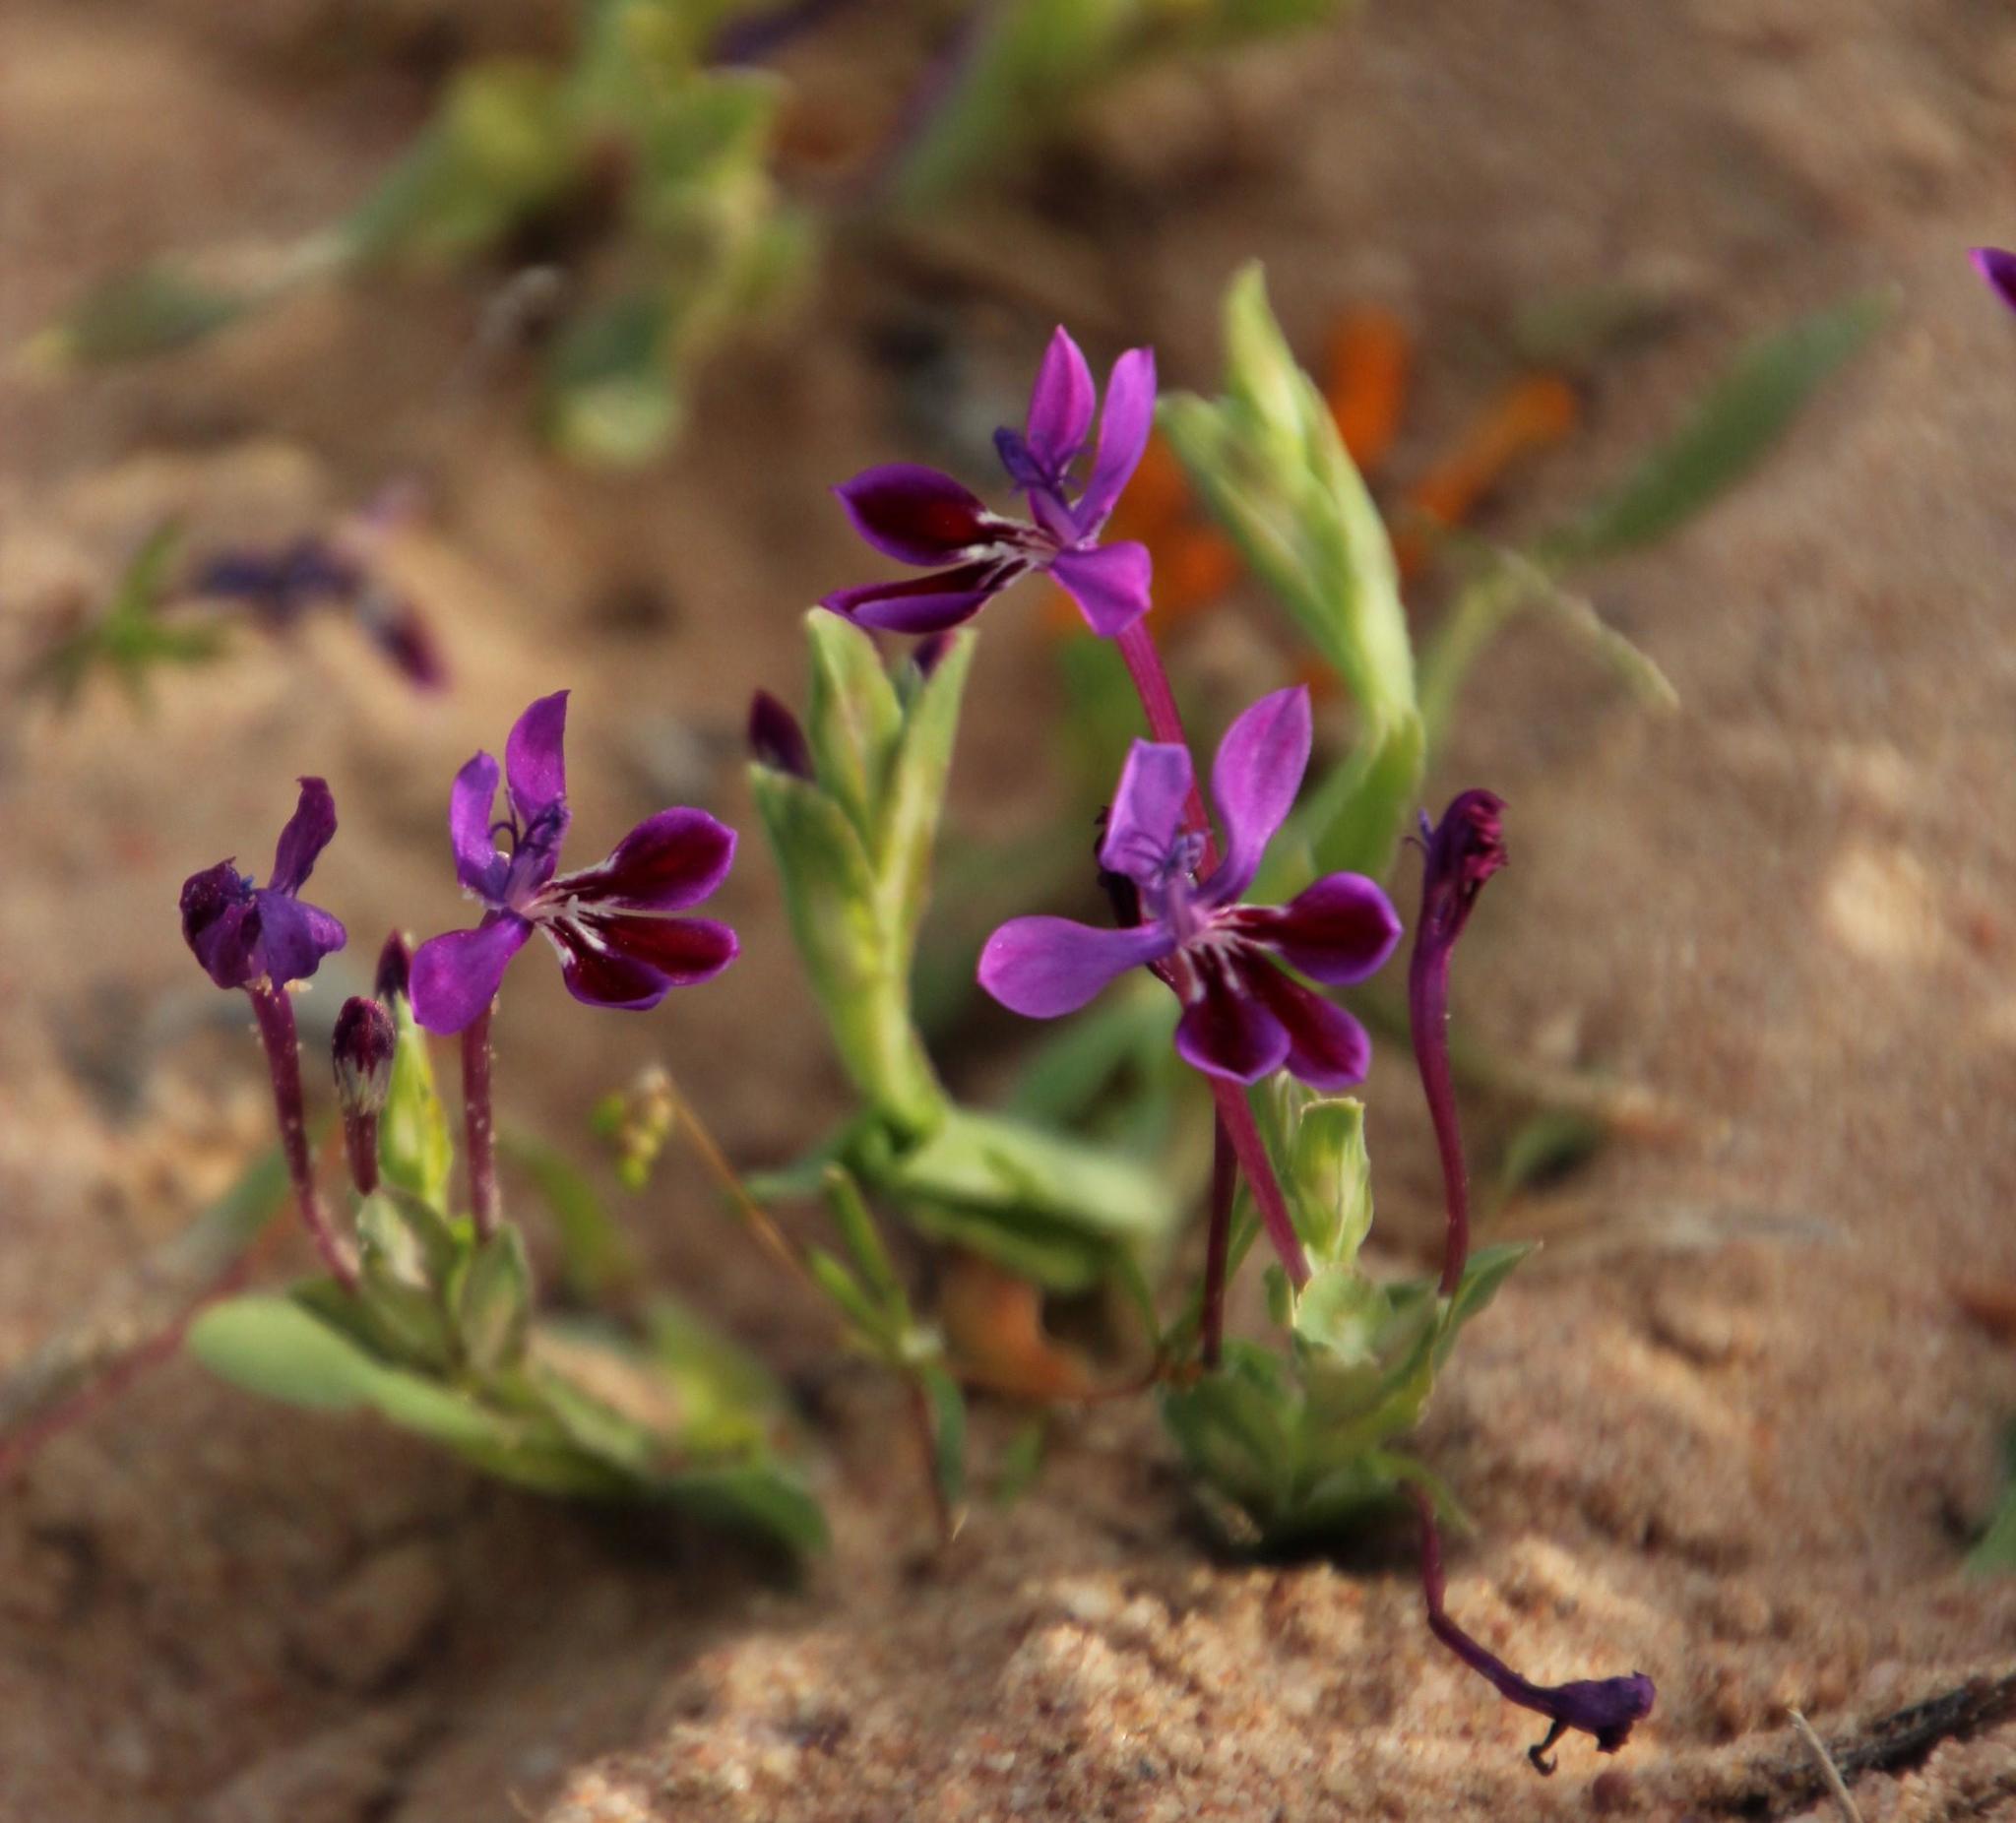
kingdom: Plantae
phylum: Tracheophyta
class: Liliopsida
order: Asparagales
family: Iridaceae
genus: Lapeirousia
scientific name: Lapeirousia jacquinii
